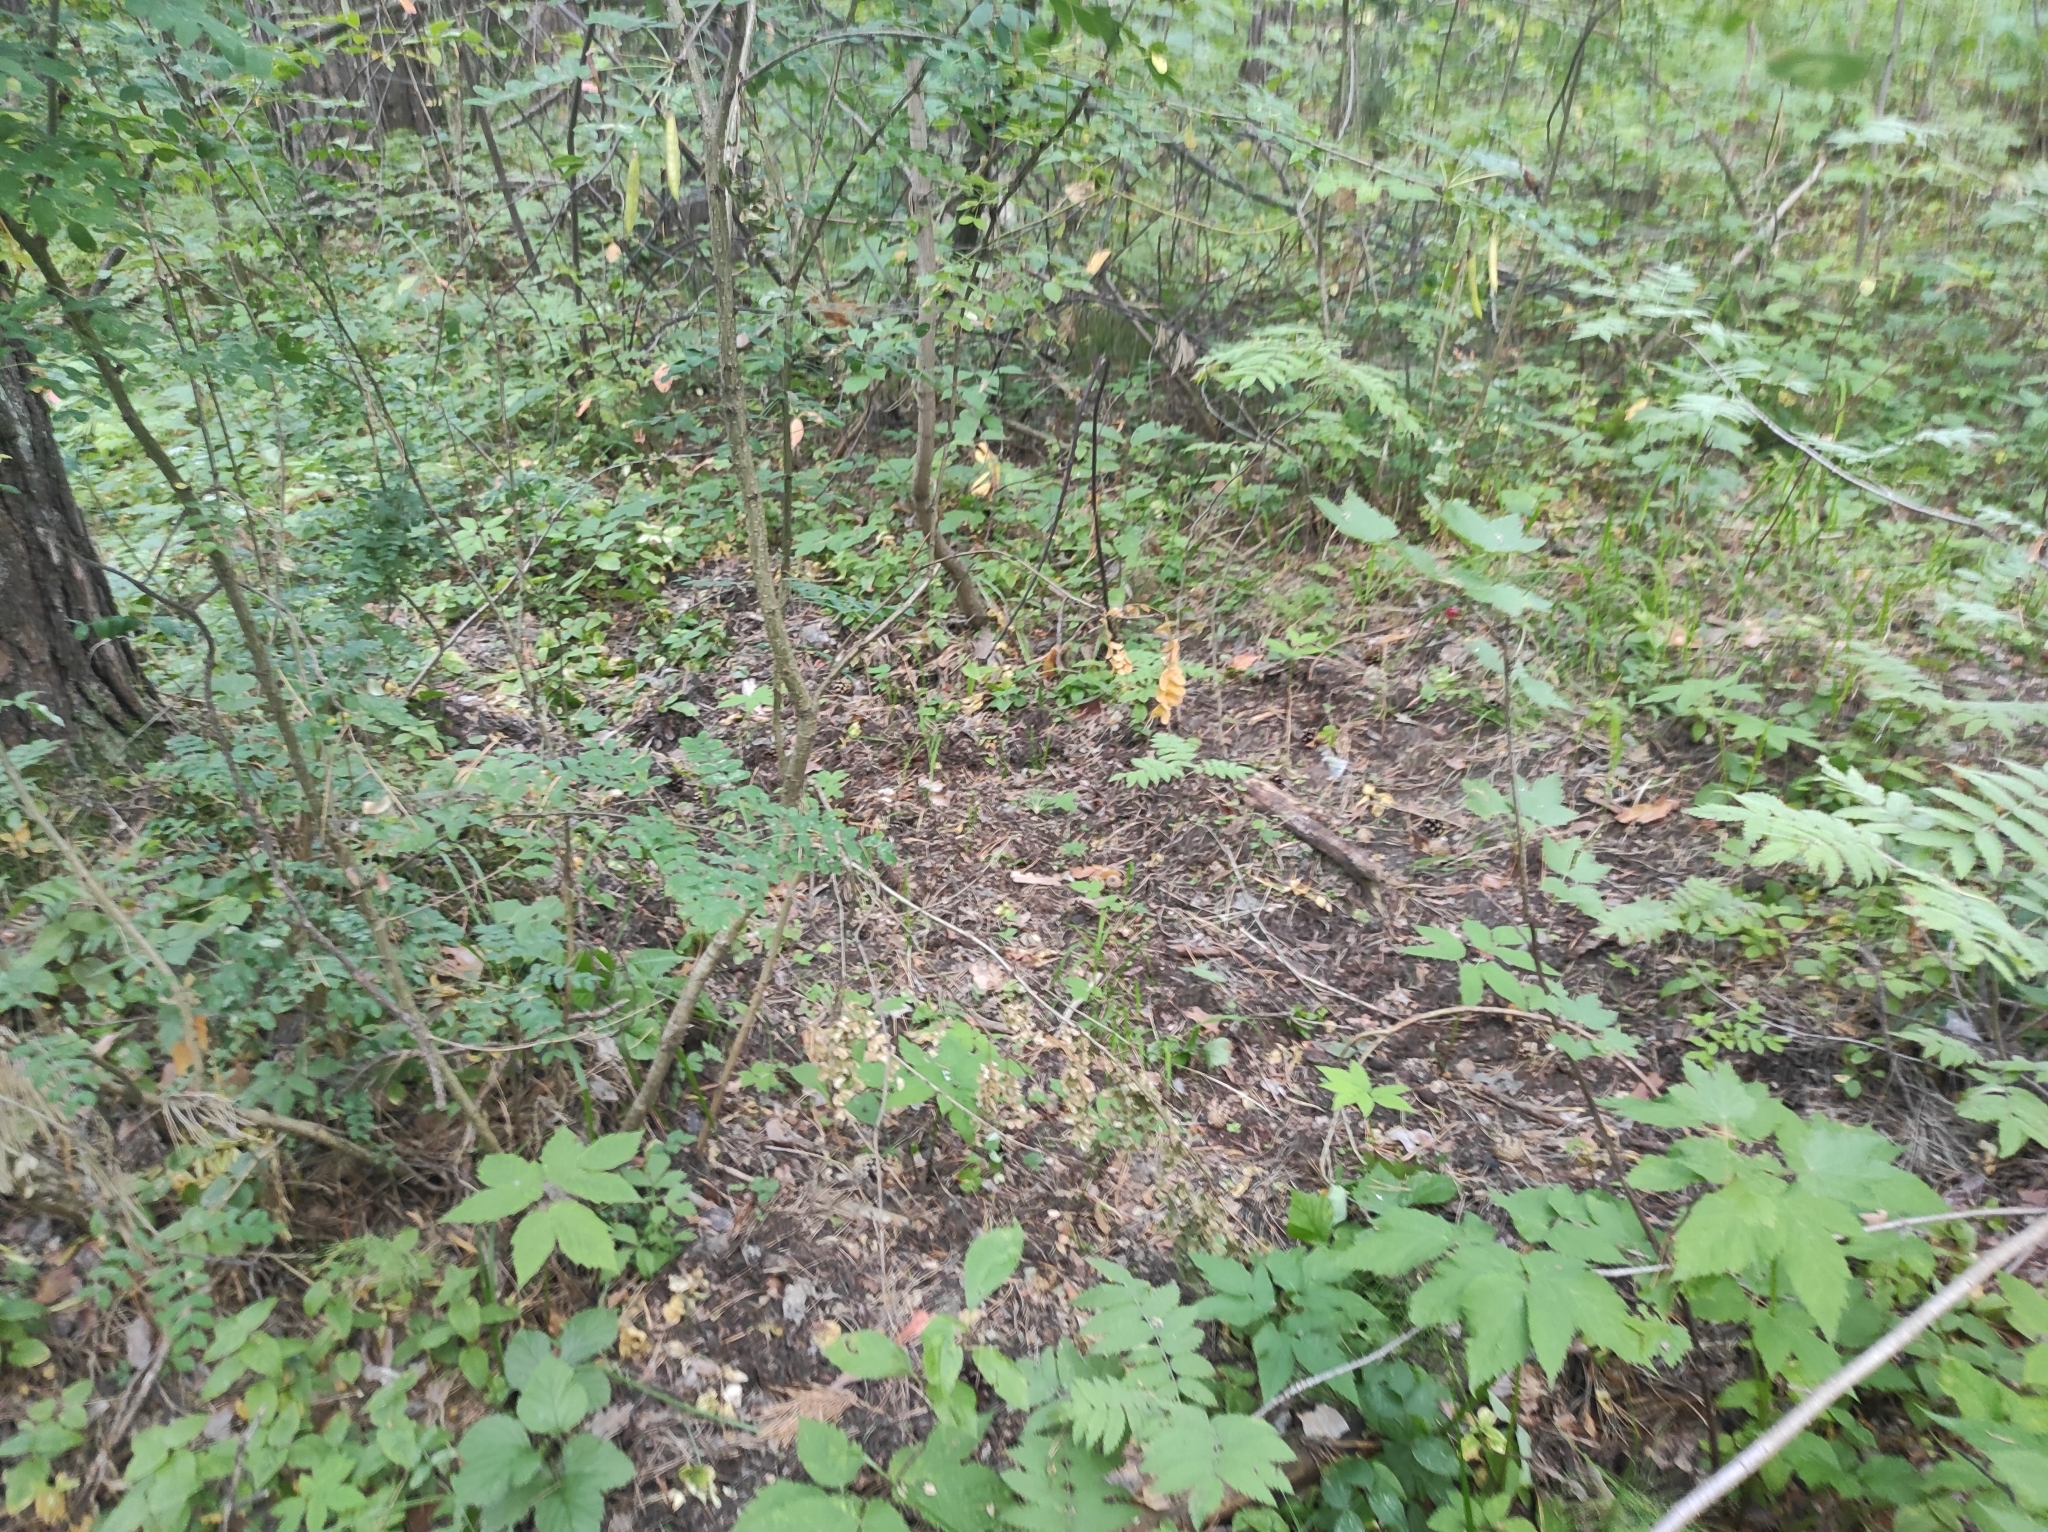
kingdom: Plantae
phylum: Tracheophyta
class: Magnoliopsida
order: Fabales
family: Fabaceae
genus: Caragana
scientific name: Caragana arborescens
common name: Siberian peashrub
